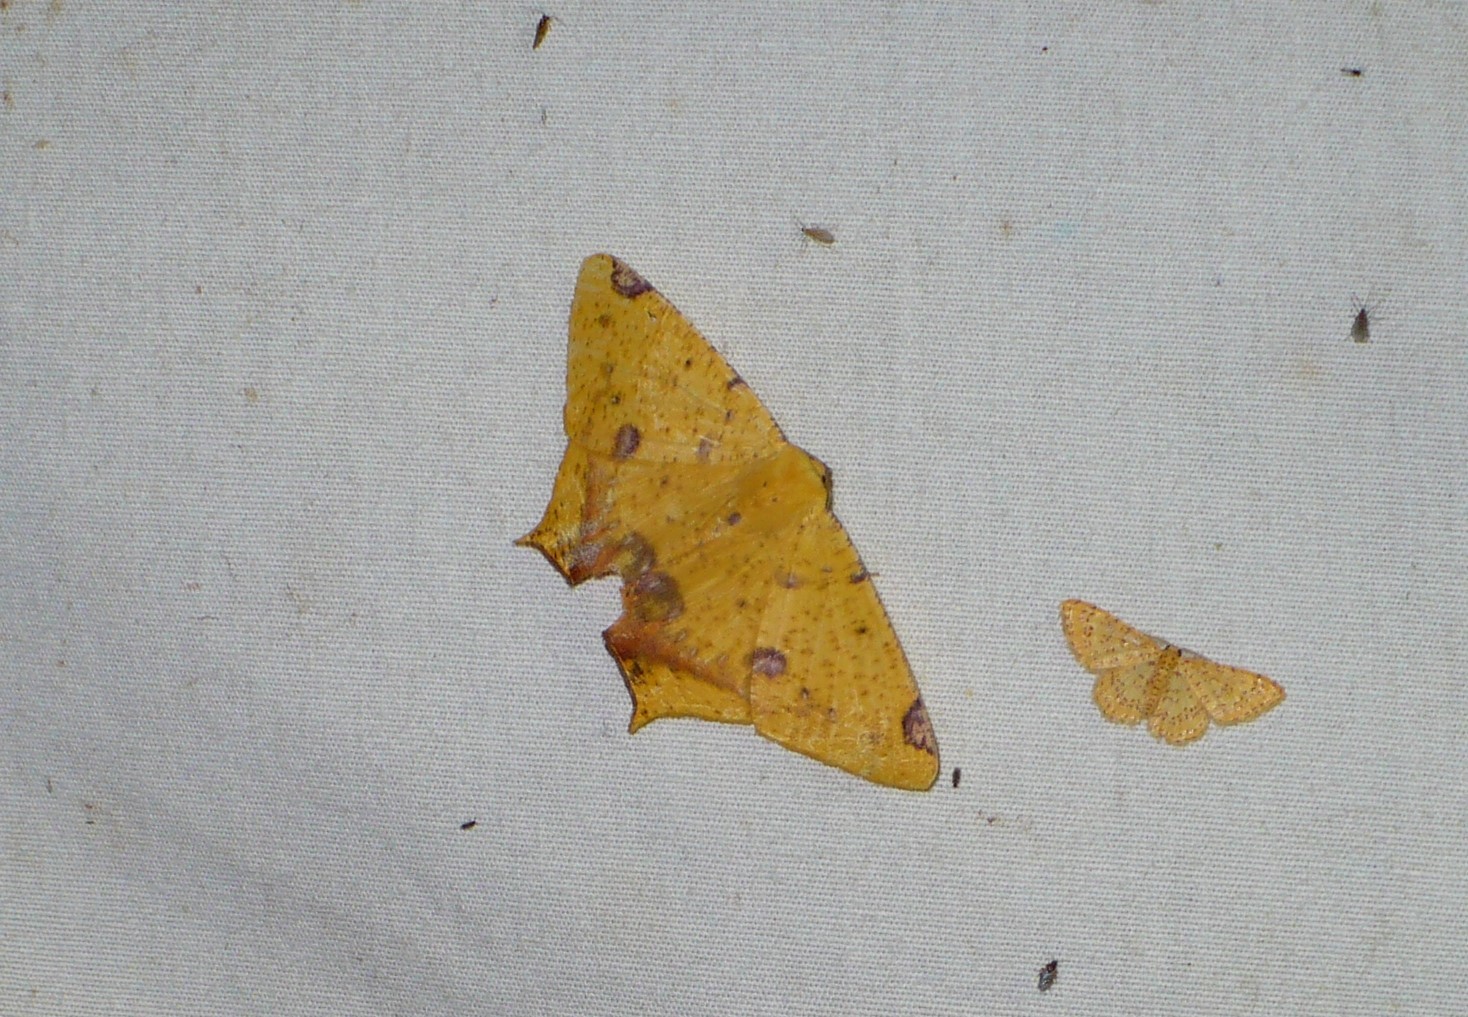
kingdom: Animalia
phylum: Arthropoda
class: Insecta
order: Lepidoptera
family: Geometridae
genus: Nepheloleuca
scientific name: Nepheloleuca politia
